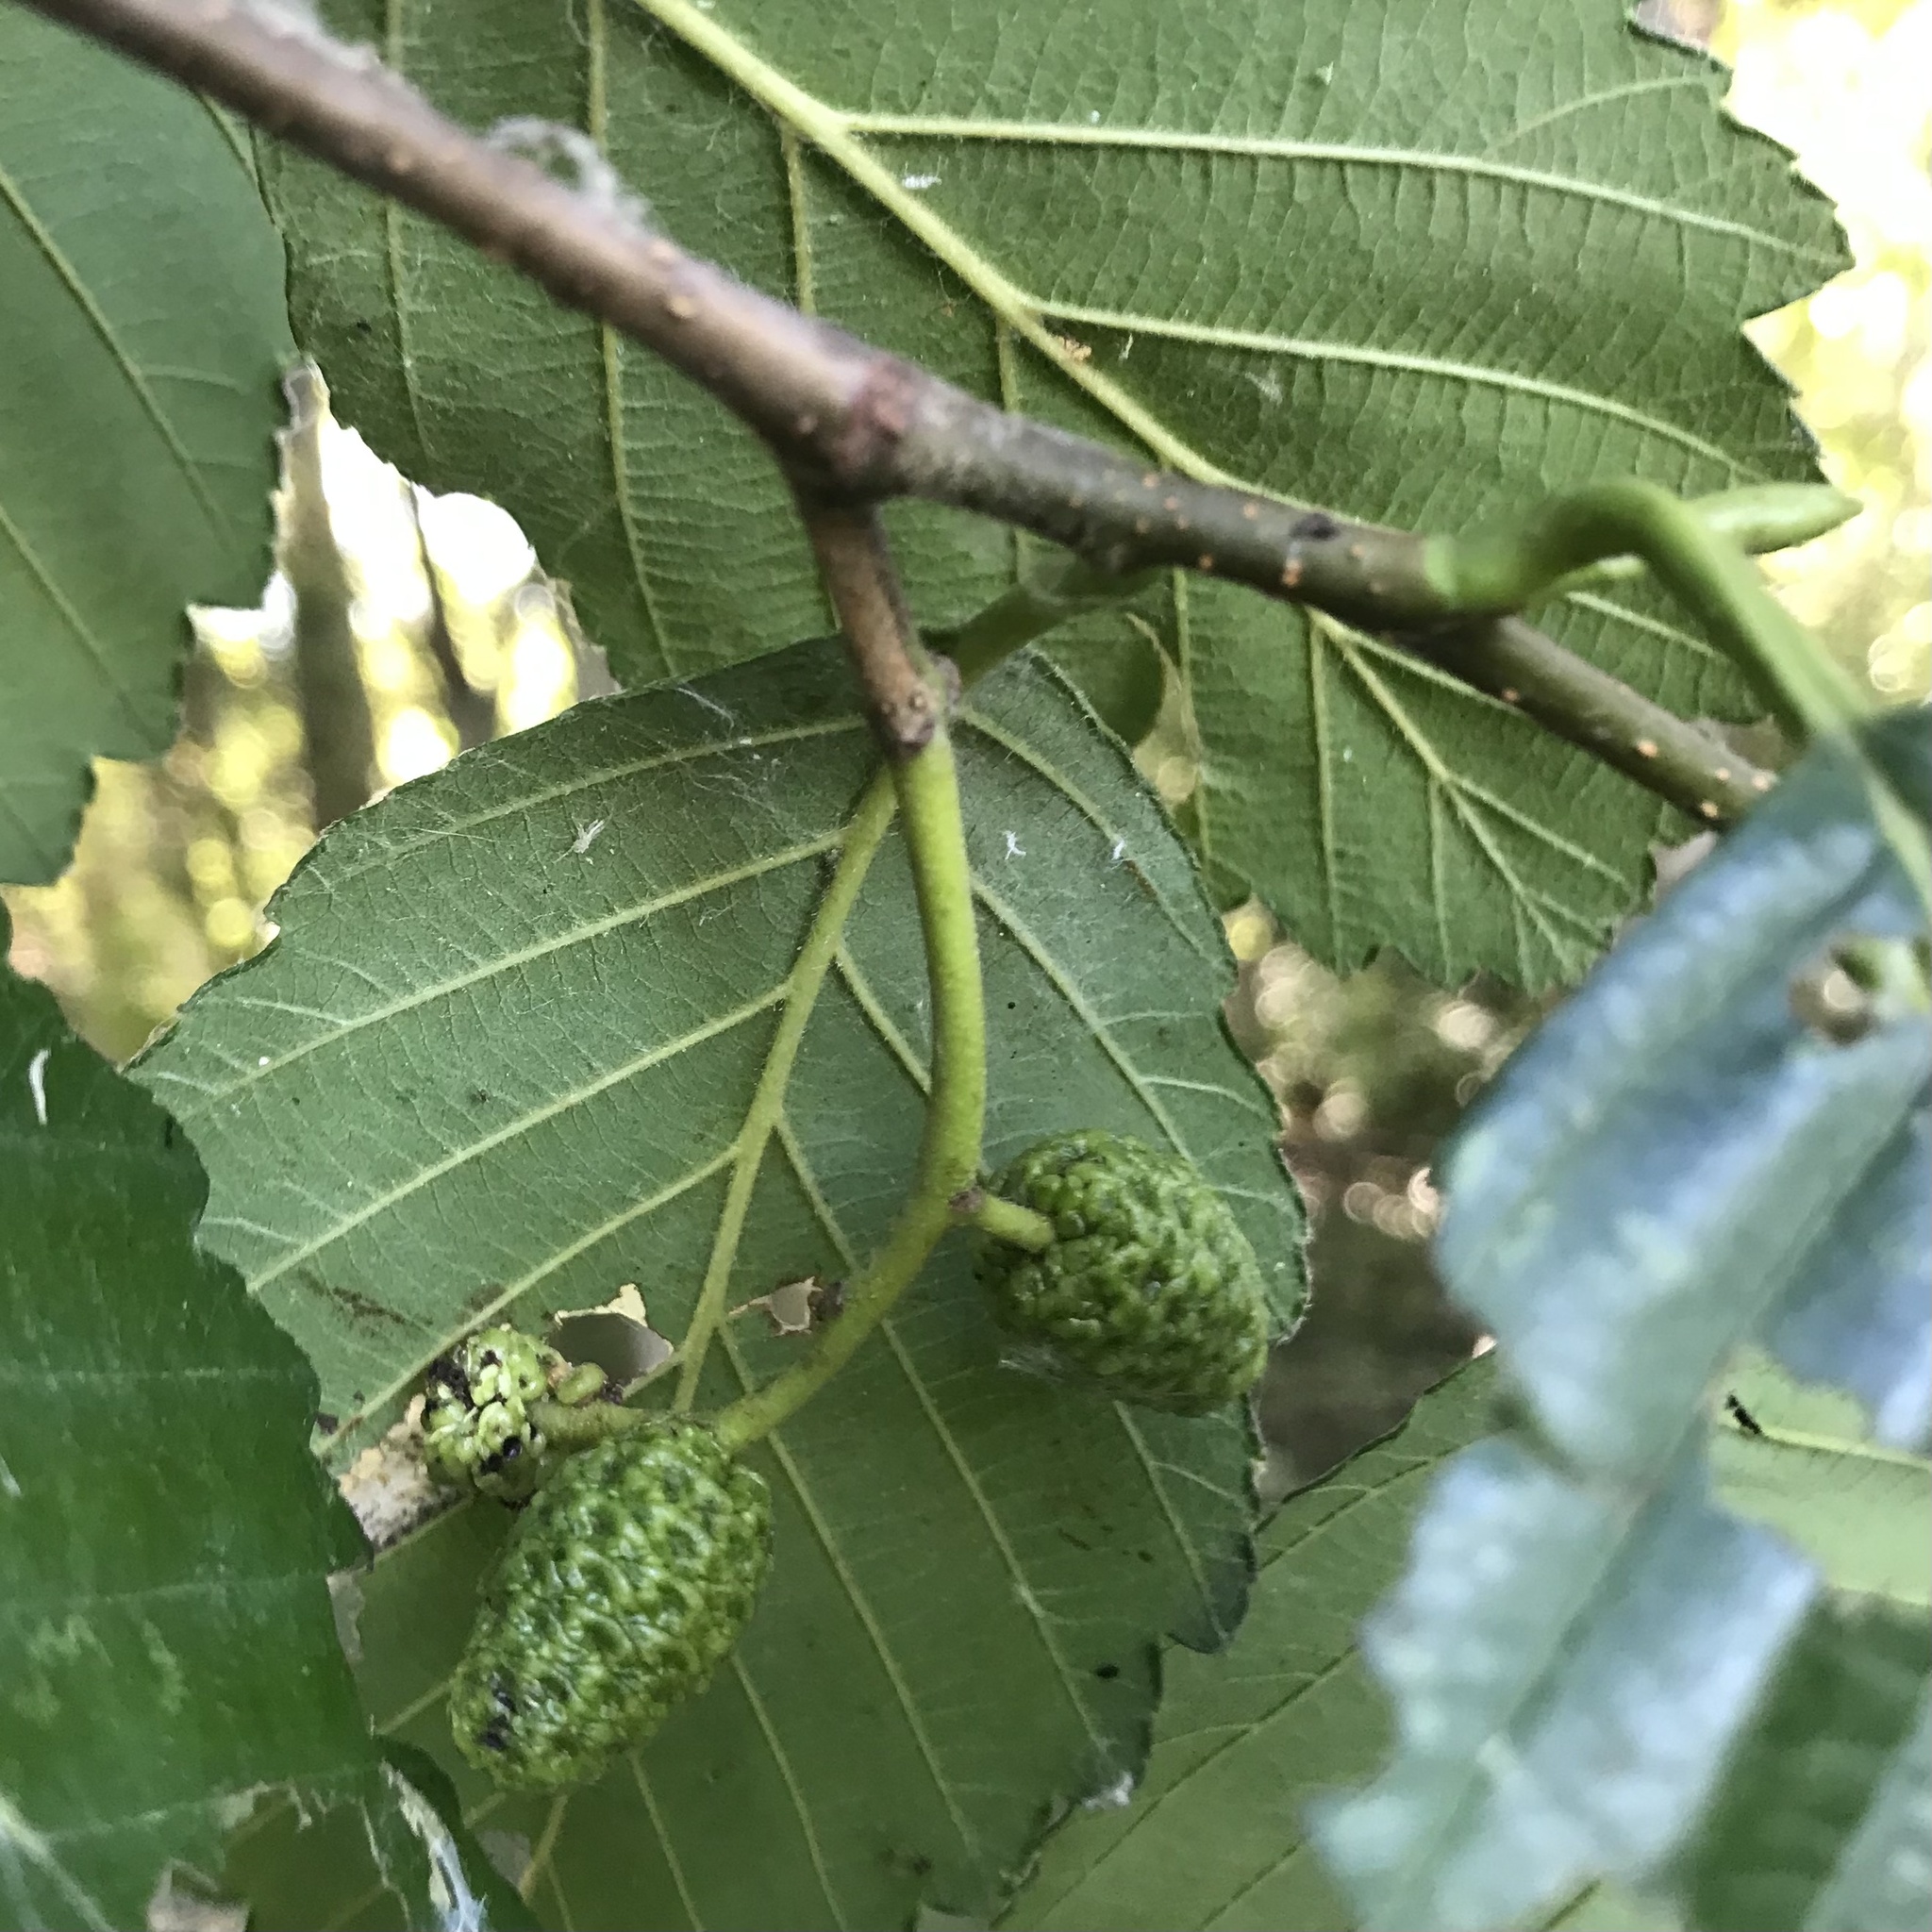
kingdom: Plantae
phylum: Tracheophyta
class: Magnoliopsida
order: Fagales
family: Betulaceae
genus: Alnus
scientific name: Alnus rubra
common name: Red alder
